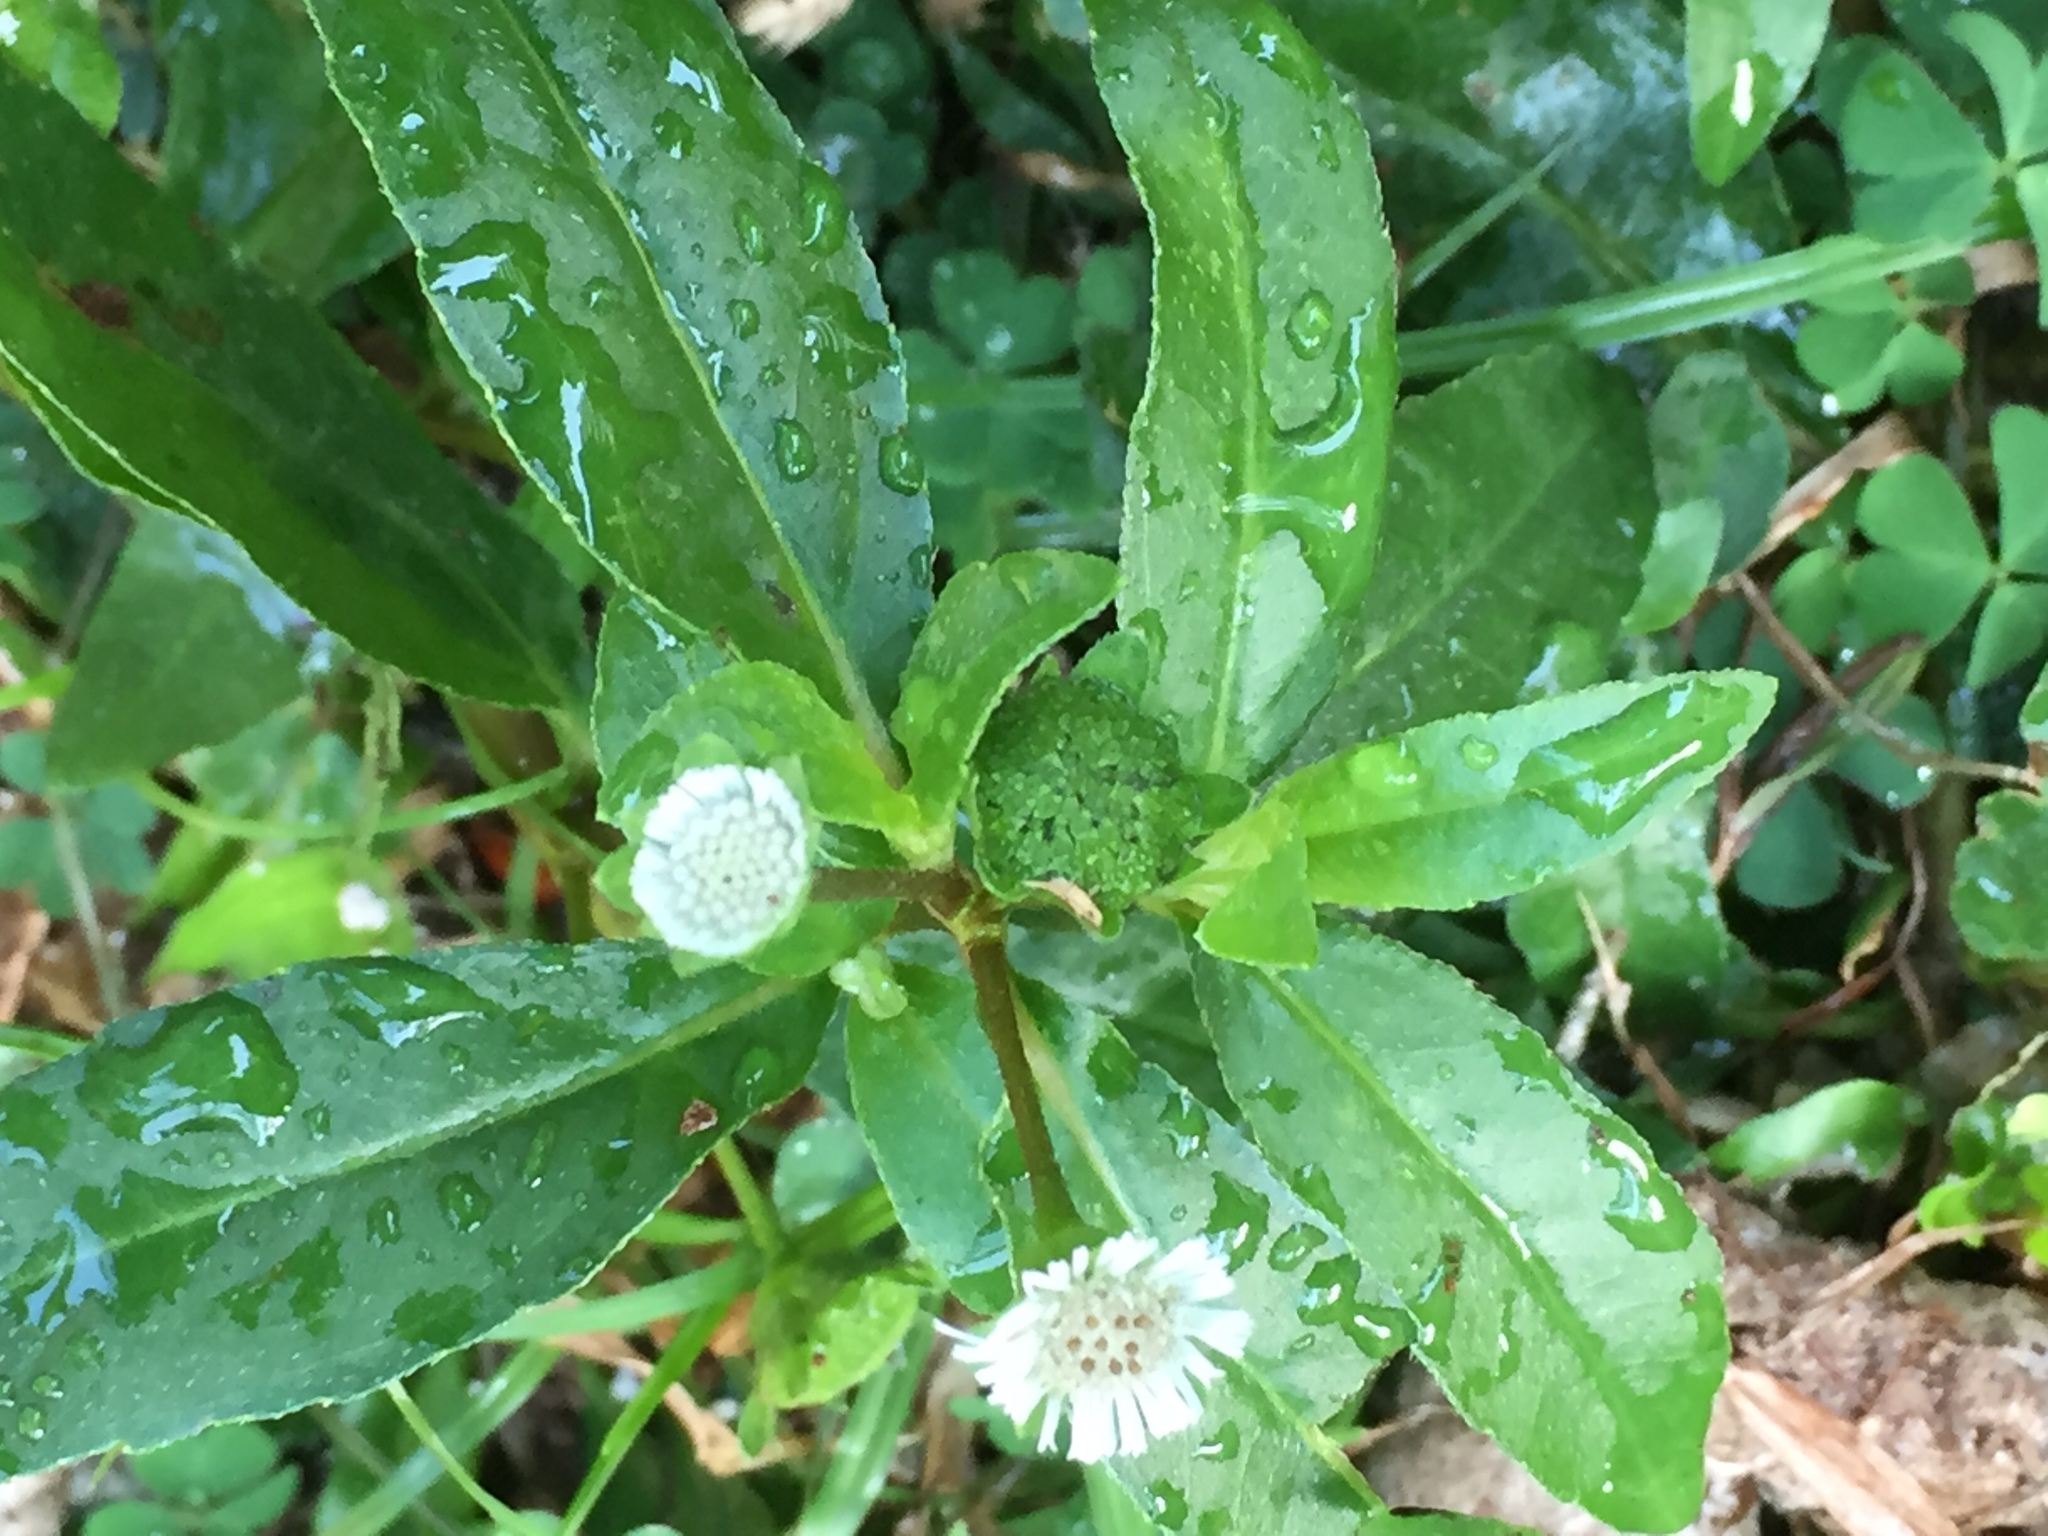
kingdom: Plantae
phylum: Tracheophyta
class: Magnoliopsida
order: Asterales
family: Asteraceae
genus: Eclipta
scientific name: Eclipta prostrata
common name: False daisy
